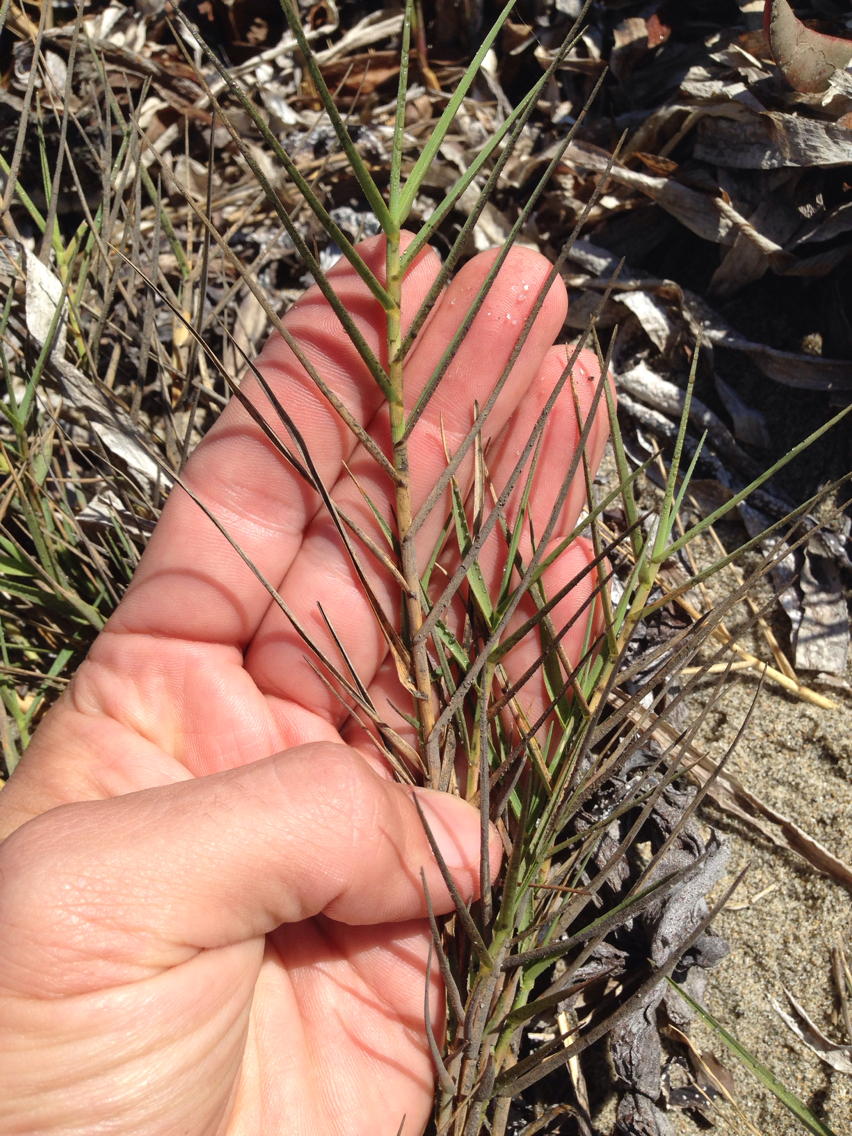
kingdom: Plantae
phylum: Tracheophyta
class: Liliopsida
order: Poales
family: Poaceae
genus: Distichlis
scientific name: Distichlis spicata
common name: Saltgrass
